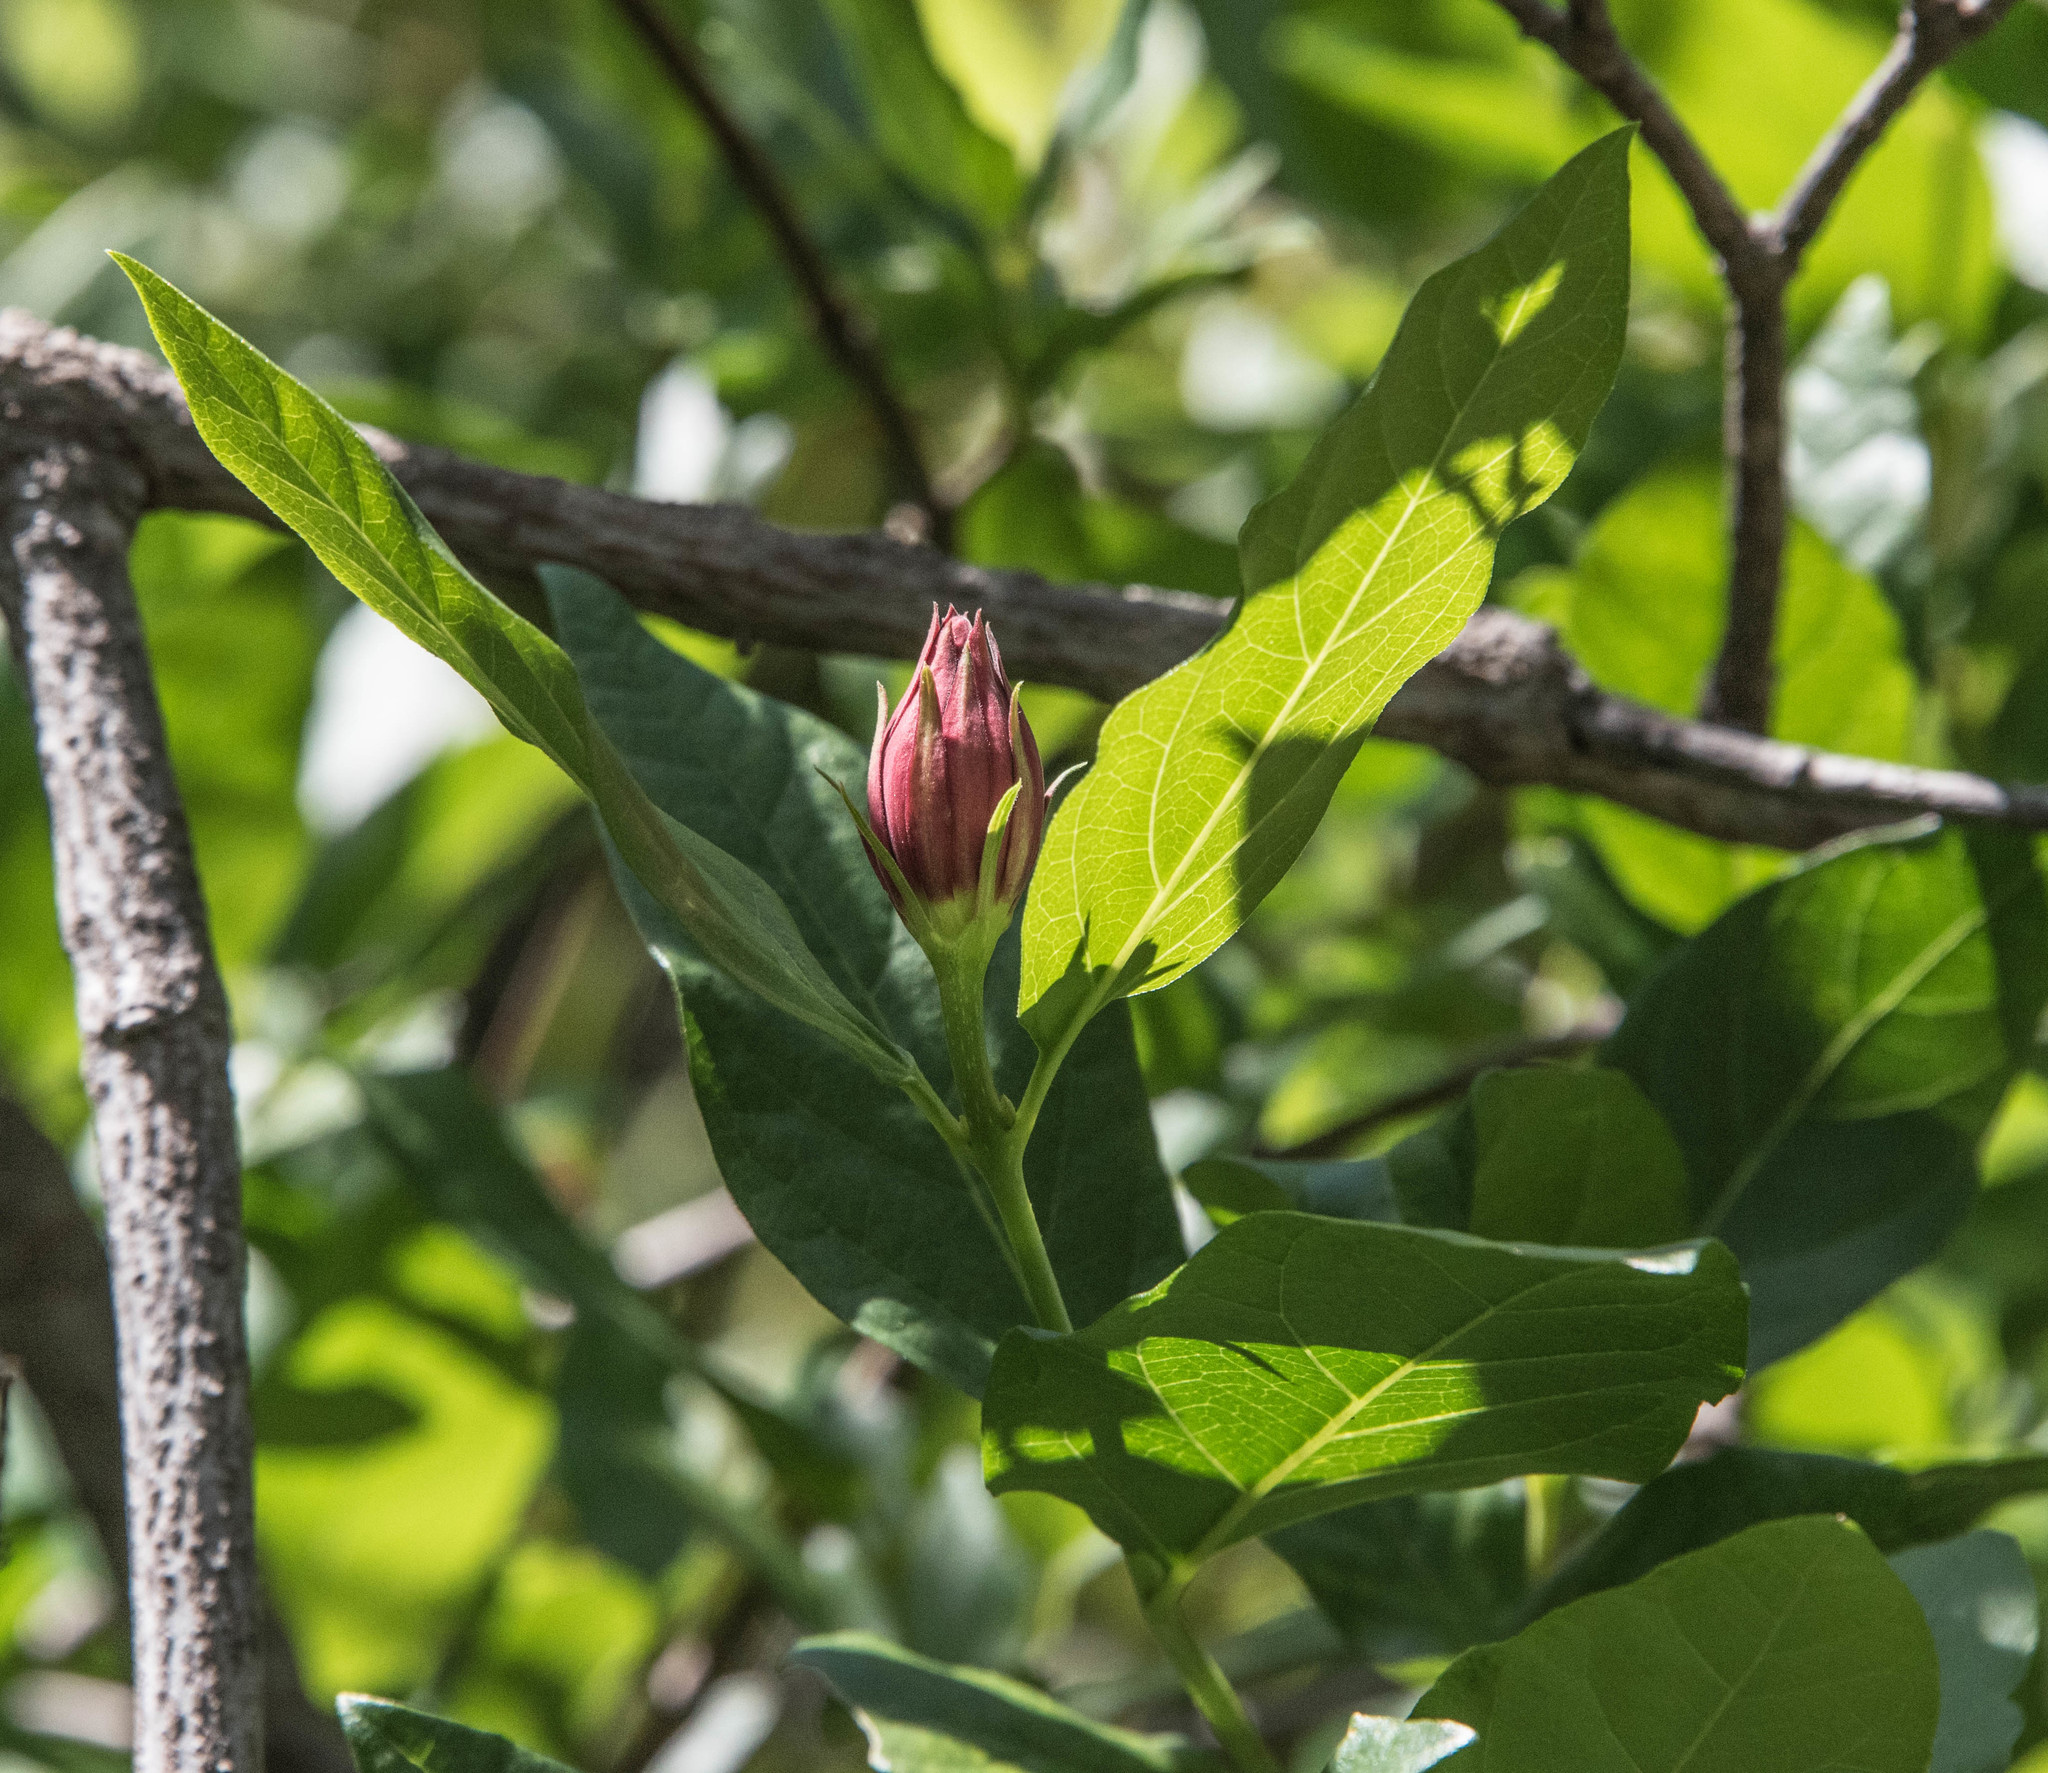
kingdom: Plantae
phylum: Tracheophyta
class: Magnoliopsida
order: Laurales
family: Calycanthaceae
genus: Calycanthus
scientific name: Calycanthus occidentalis
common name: California spicebush
